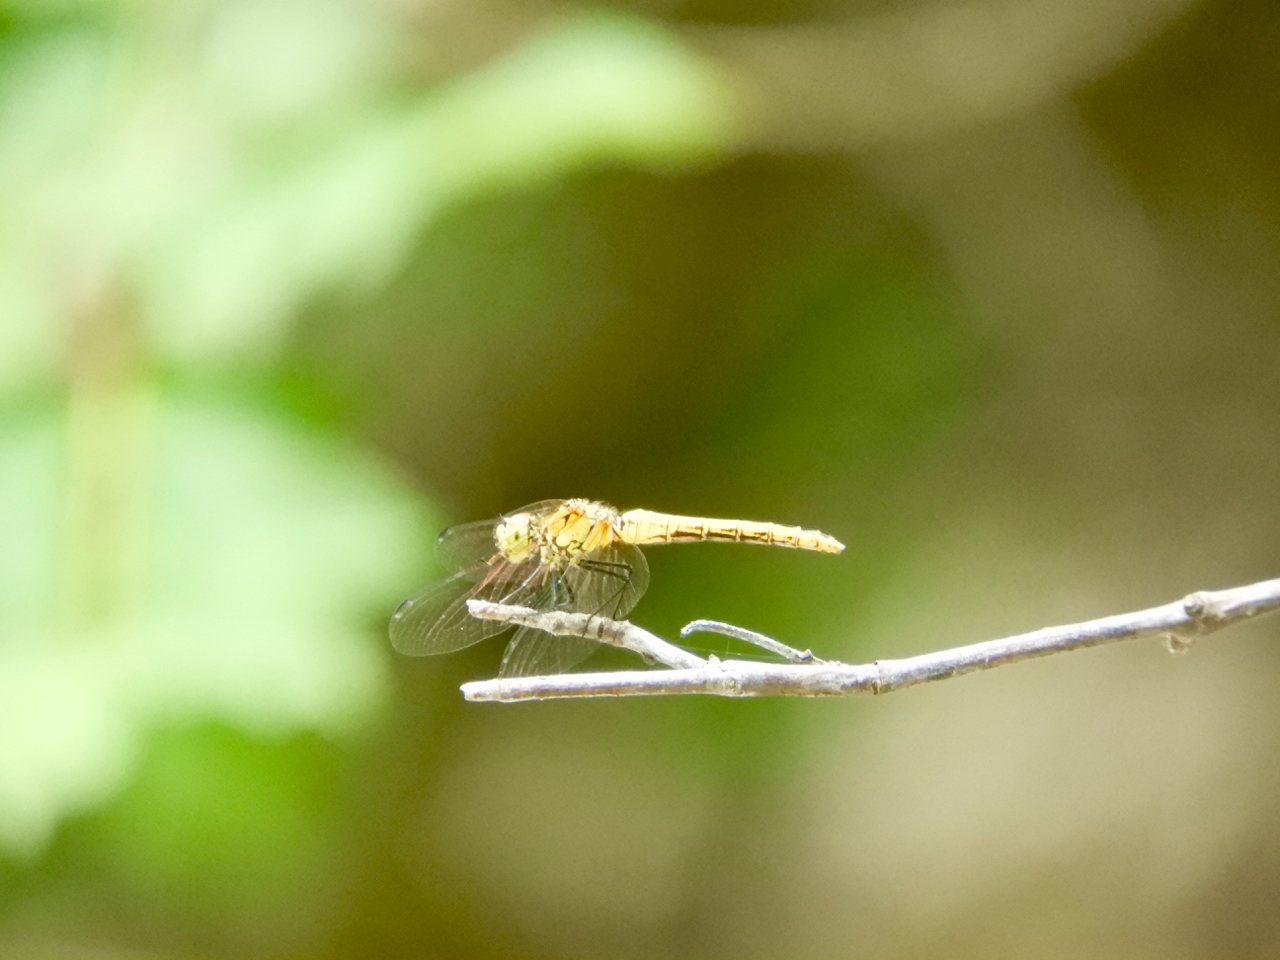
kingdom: Animalia
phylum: Arthropoda
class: Insecta
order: Odonata
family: Libellulidae
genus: Sympetrum
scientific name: Sympetrum sanguineum
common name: Ruddy darter
